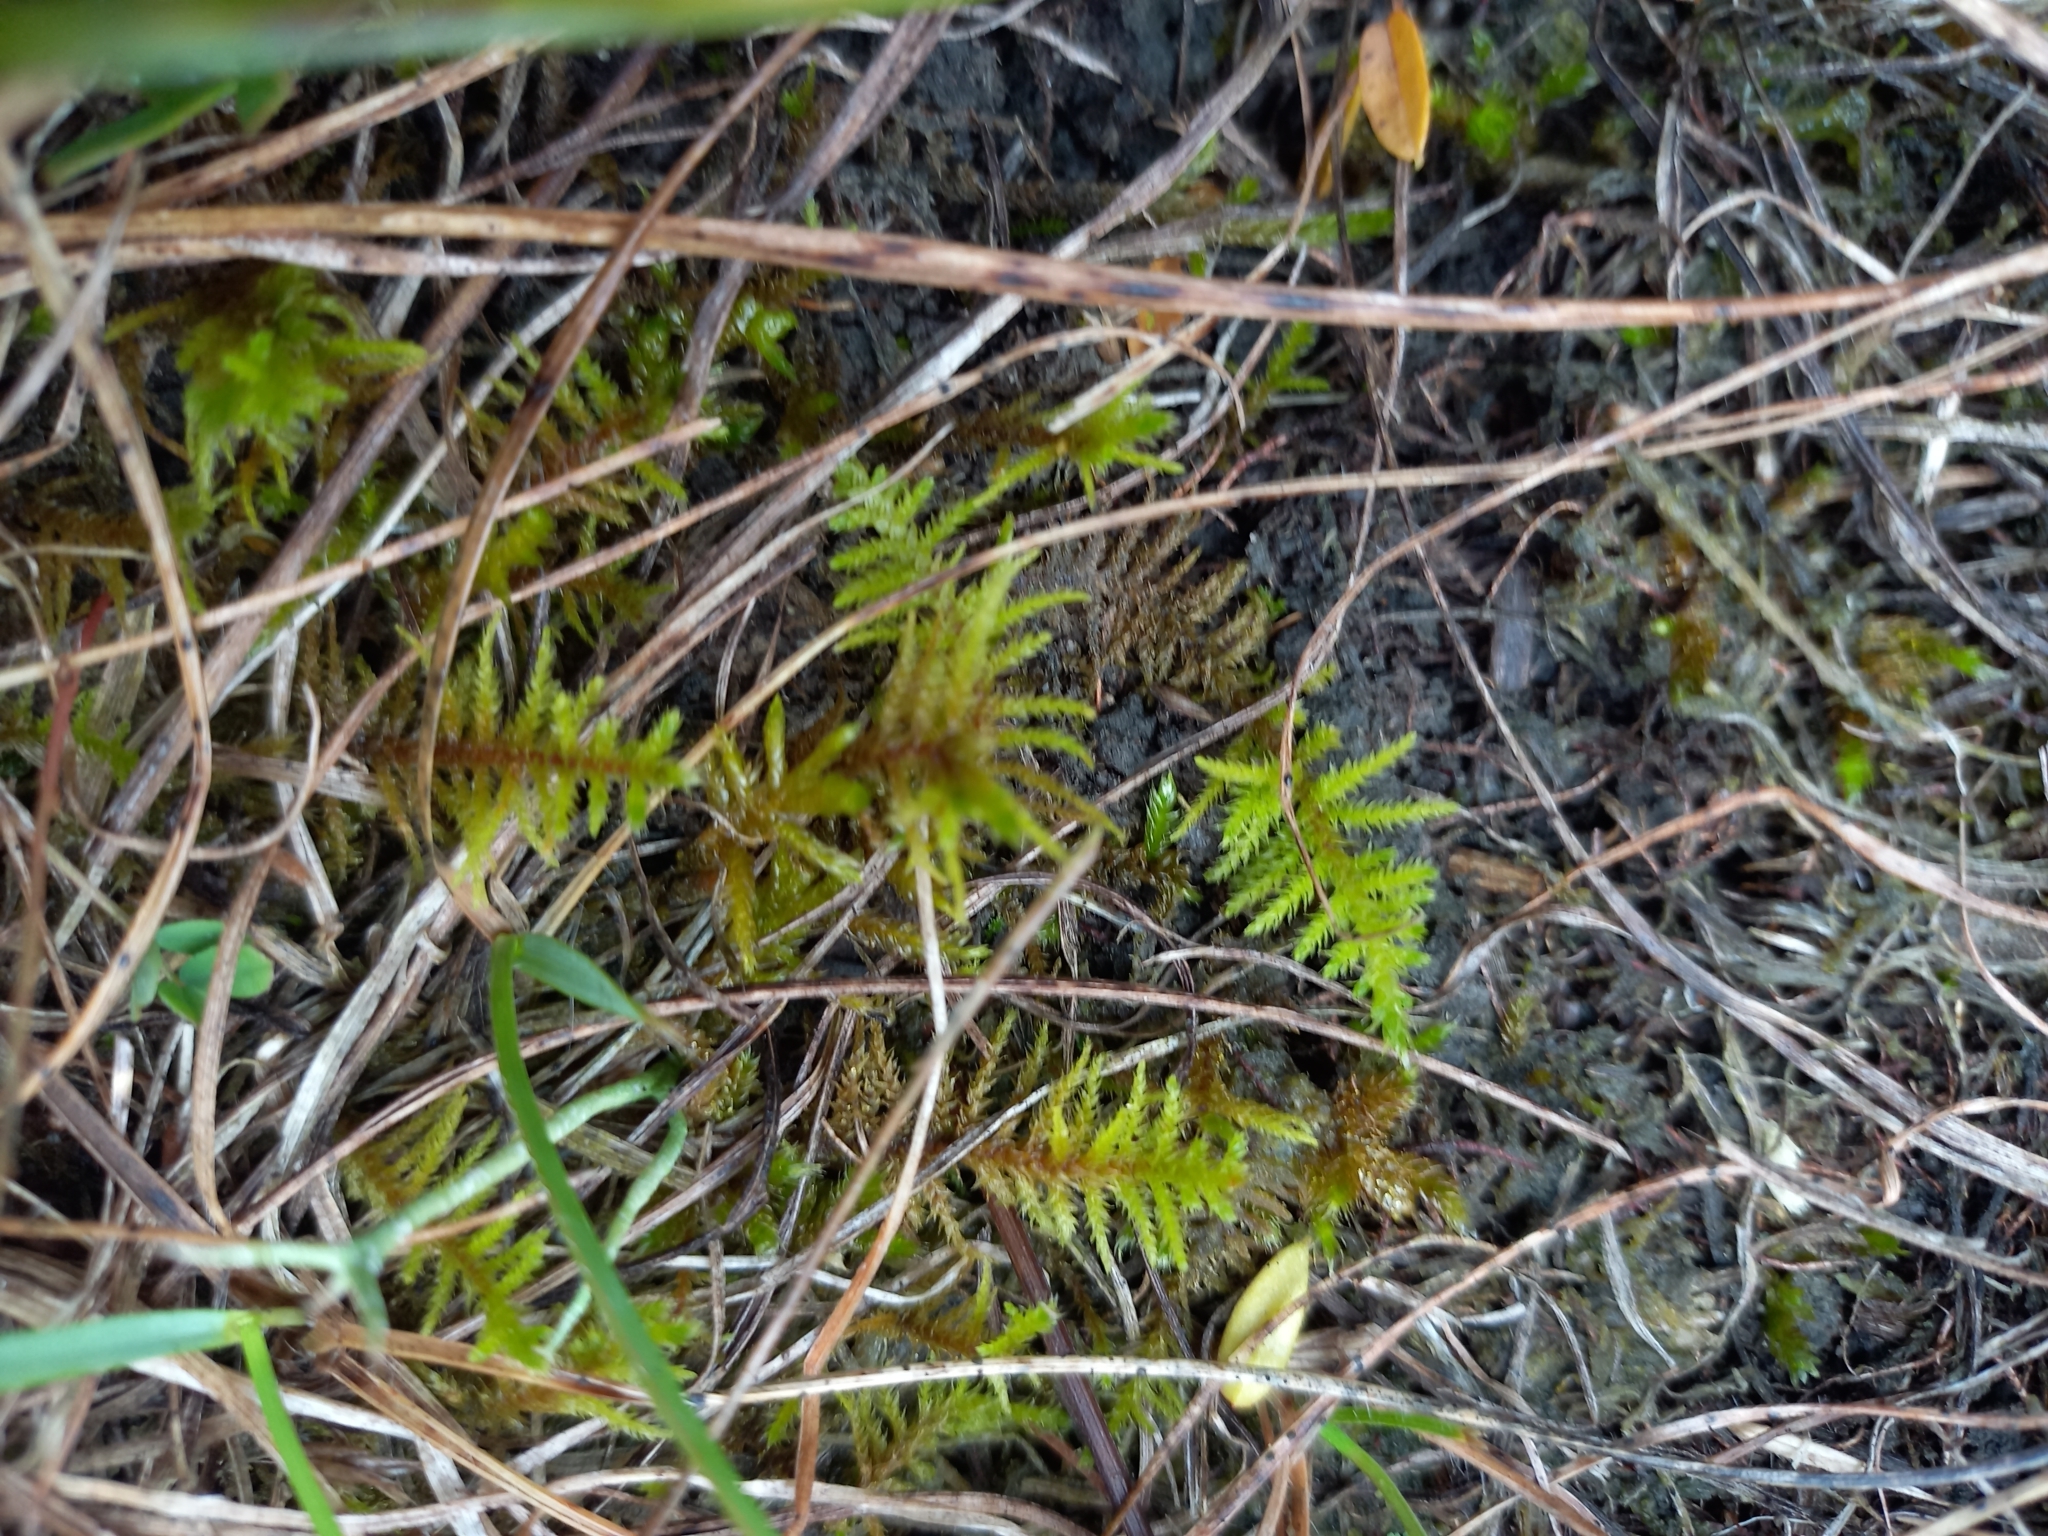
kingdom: Plantae
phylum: Bryophyta
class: Bryopsida
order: Hypnales
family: Thuidiaceae
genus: Abietinella
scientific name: Abietinella abietina
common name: Wiry fern moss
